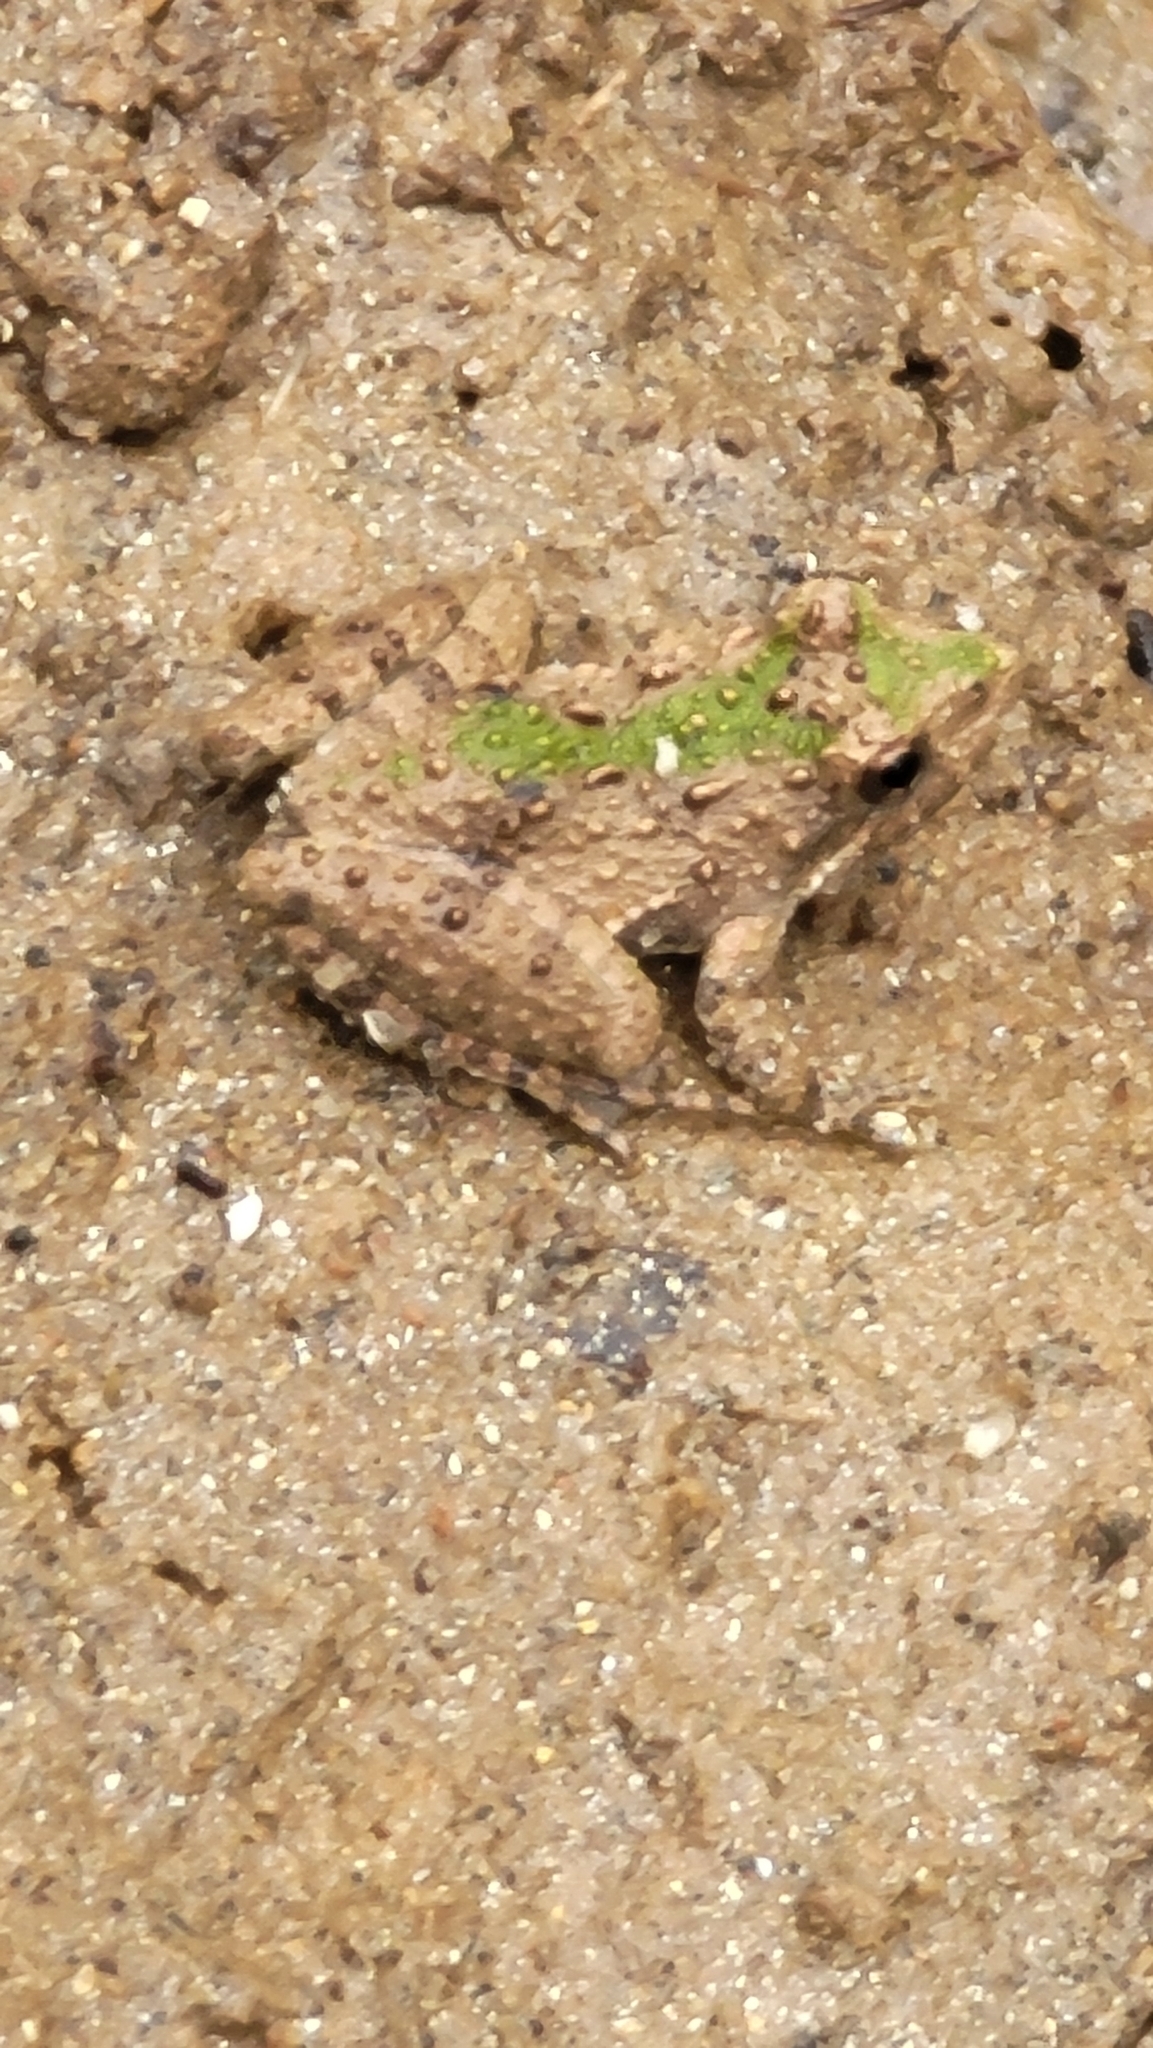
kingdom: Animalia
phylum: Chordata
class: Amphibia
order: Anura
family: Hylidae
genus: Acris
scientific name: Acris crepitans
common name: Northern cricket frog
